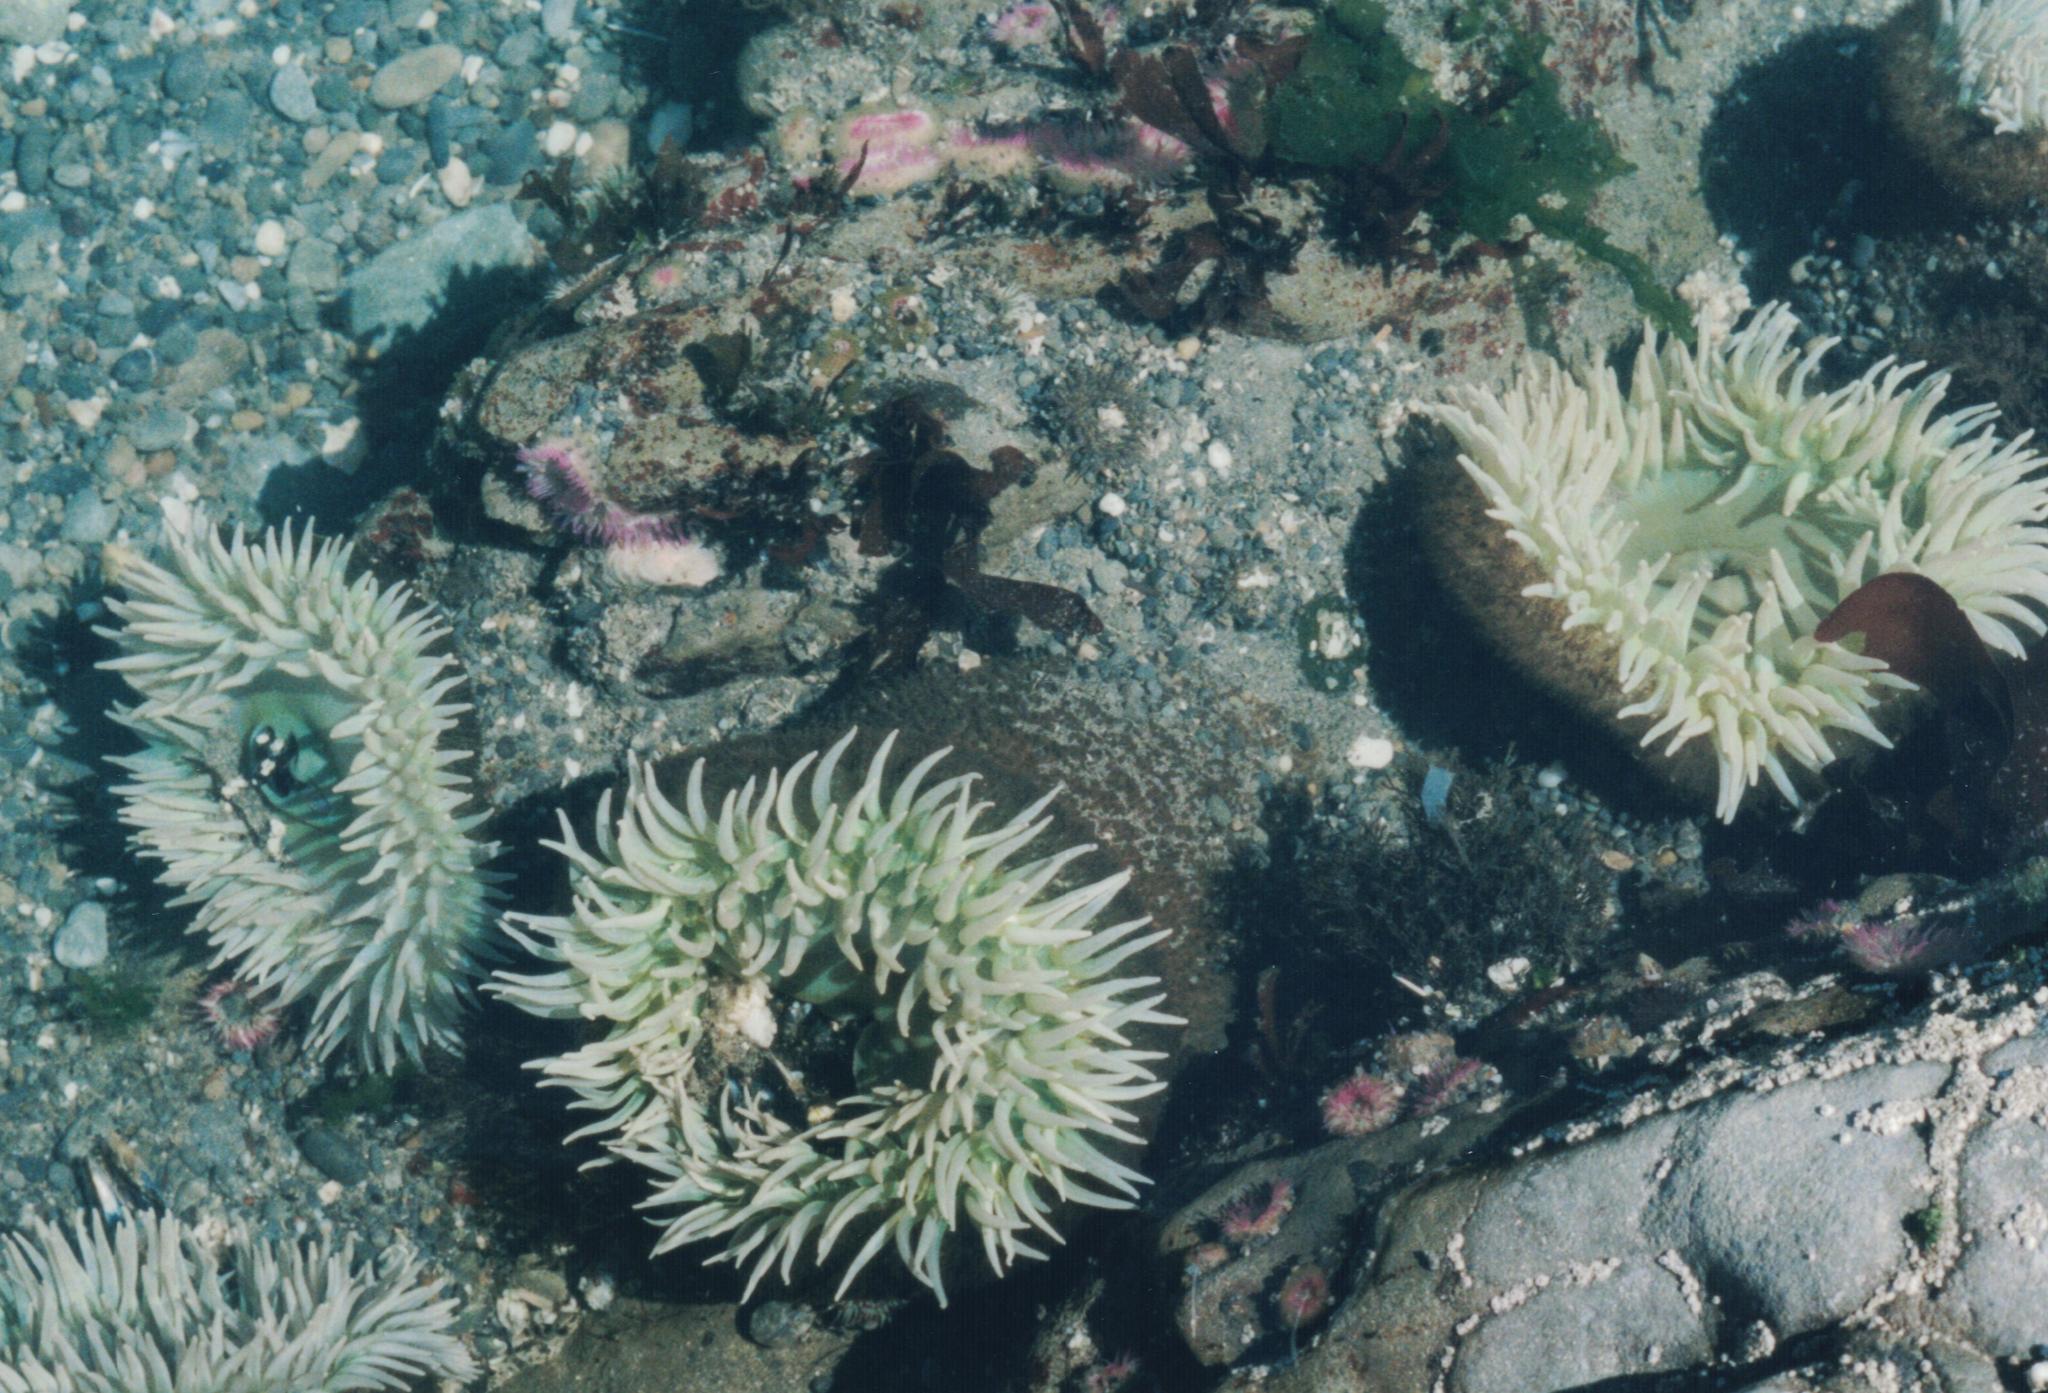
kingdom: Animalia
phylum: Cnidaria
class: Anthozoa
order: Actiniaria
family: Actiniidae
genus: Anthopleura
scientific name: Anthopleura xanthogrammica
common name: Giant green anemone
